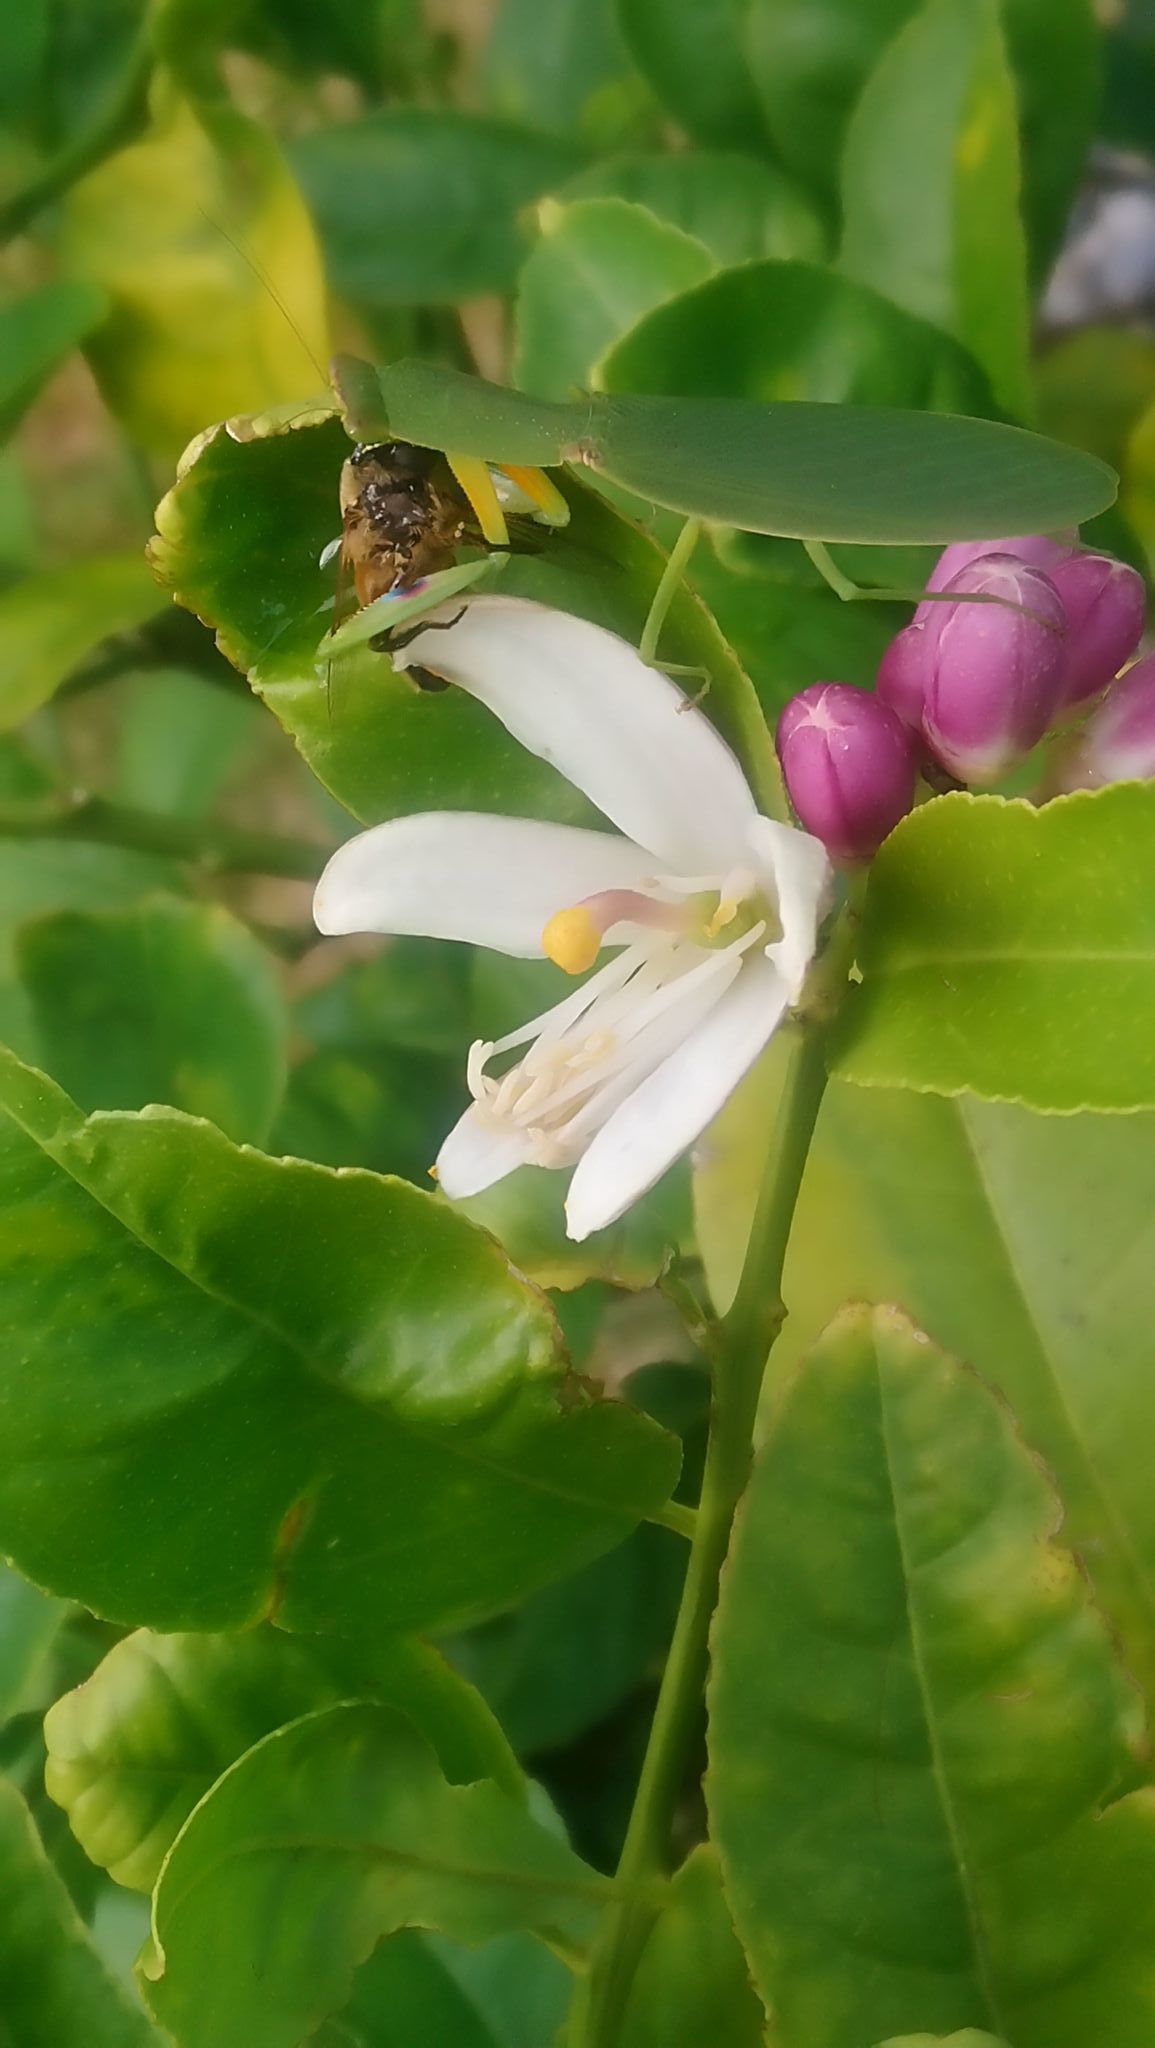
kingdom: Animalia
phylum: Arthropoda
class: Insecta
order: Mantodea
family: Mantidae
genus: Orthodera
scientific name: Orthodera novaezealandiae
